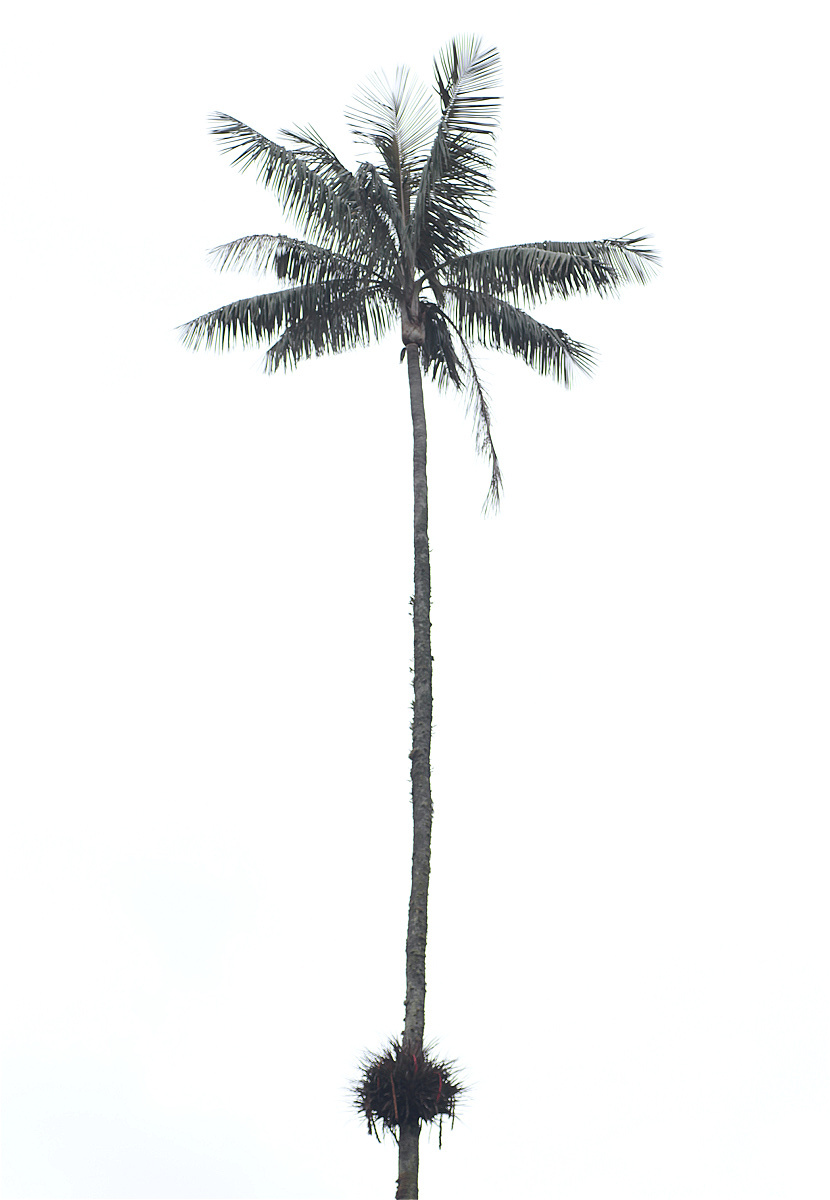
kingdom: Plantae
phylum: Tracheophyta
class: Liliopsida
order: Arecales
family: Arecaceae
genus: Ceroxylon
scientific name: Ceroxylon quindiuense
